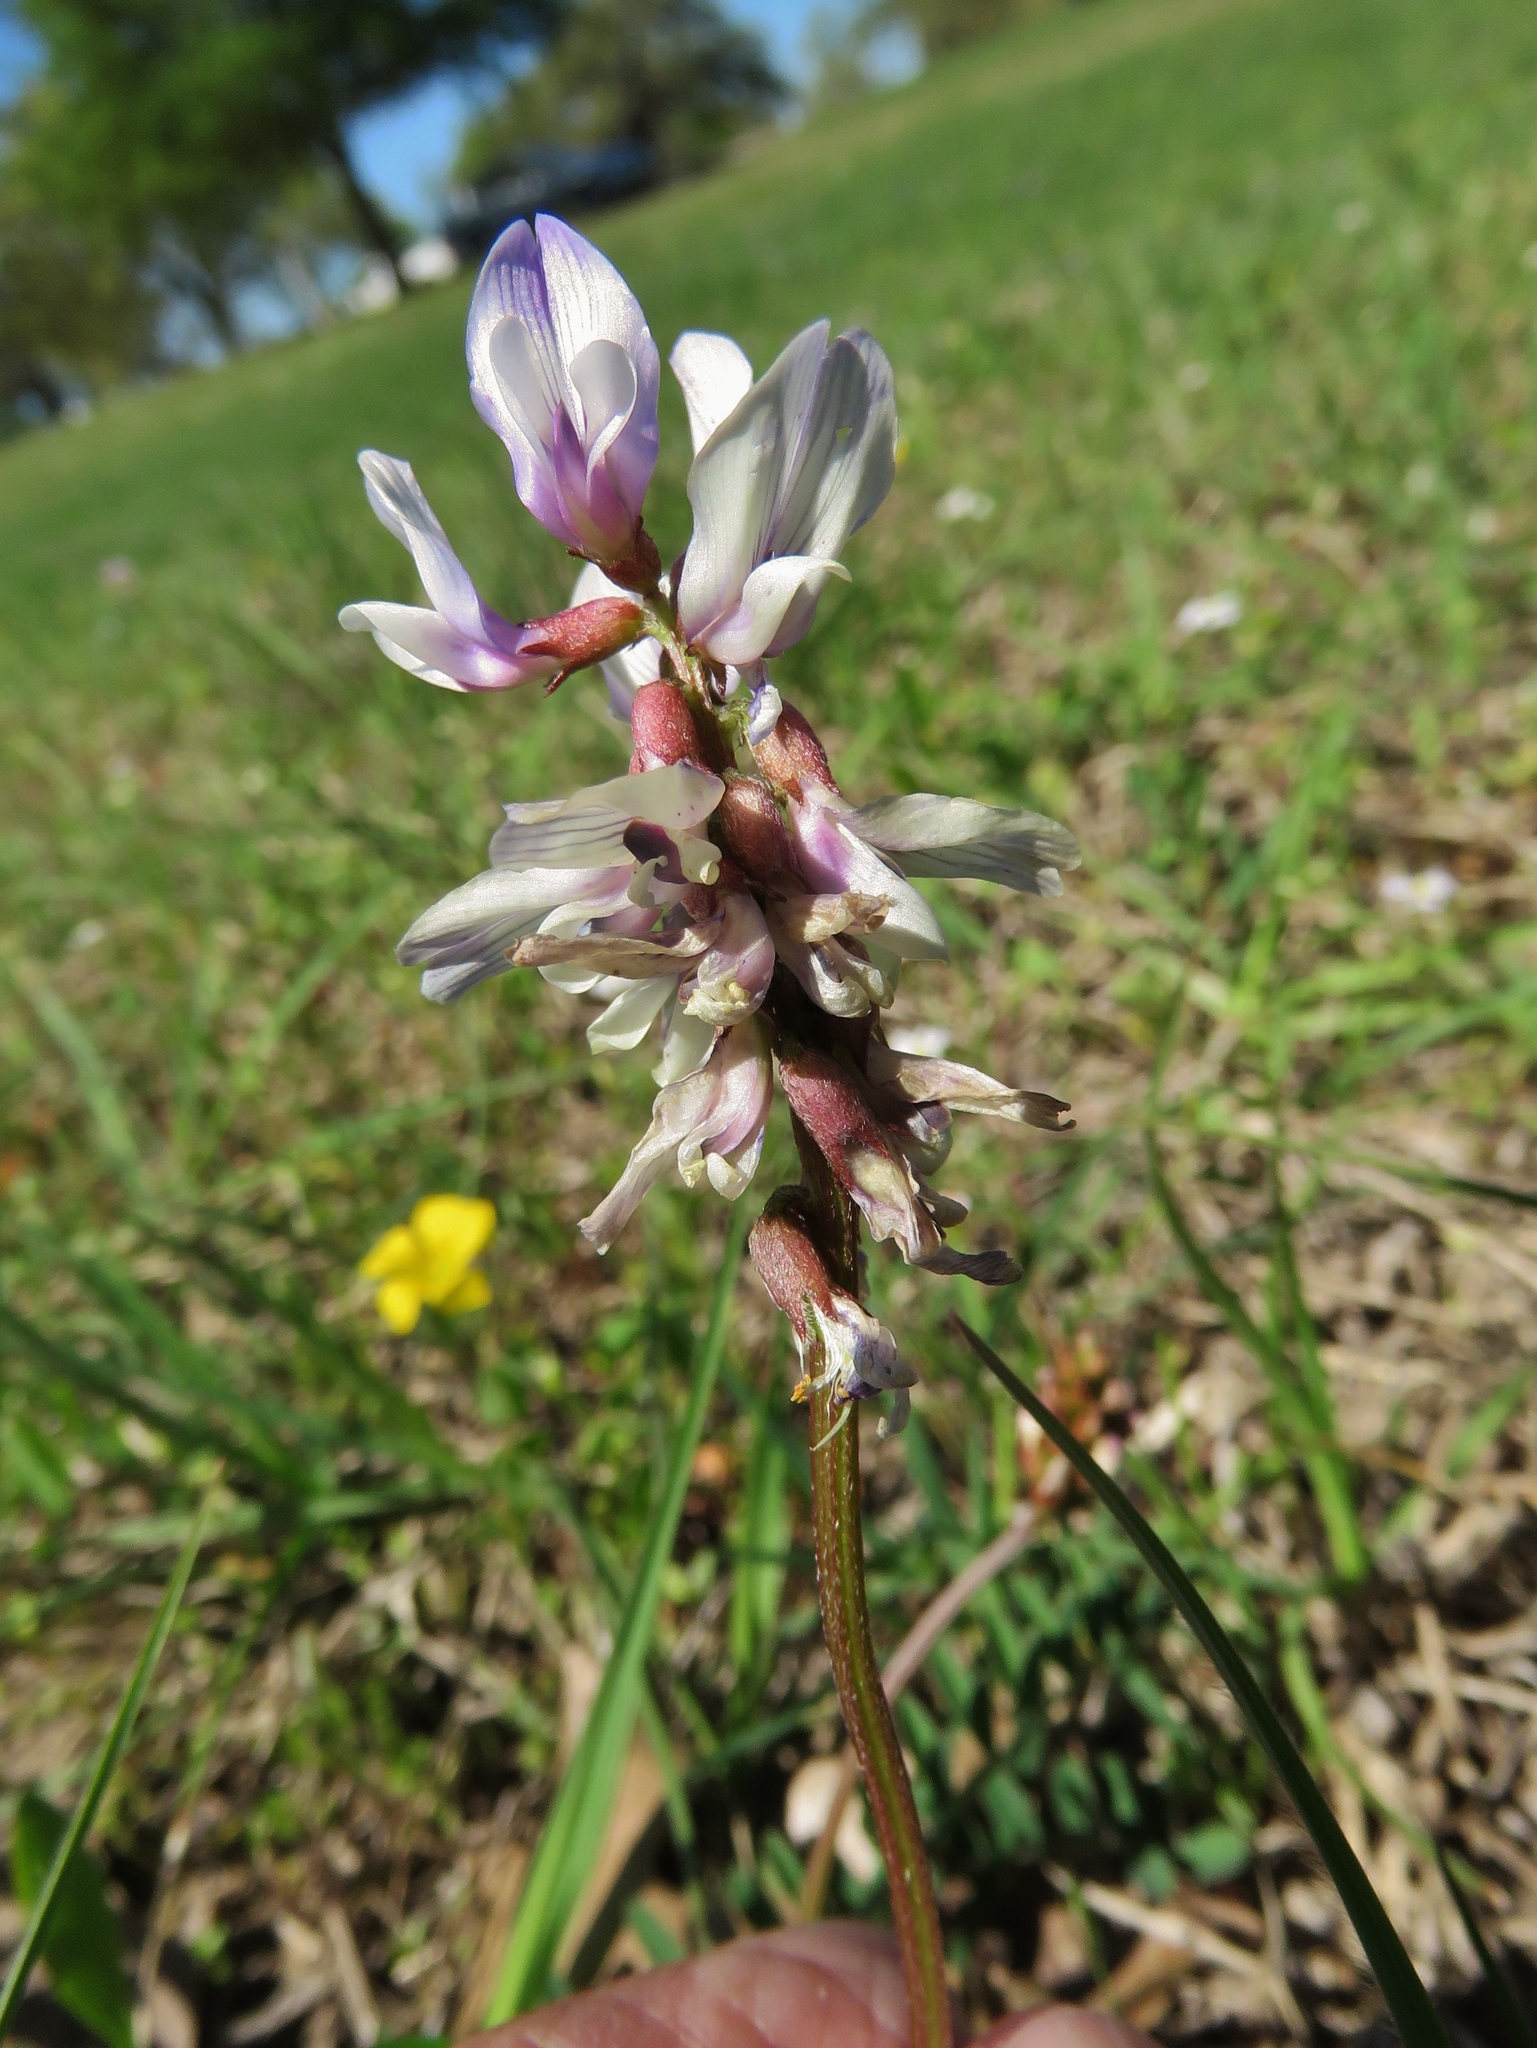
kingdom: Plantae
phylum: Tracheophyta
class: Magnoliopsida
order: Fabales
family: Fabaceae
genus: Astragalus
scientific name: Astragalus distortus
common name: Ozark milk-vetch
